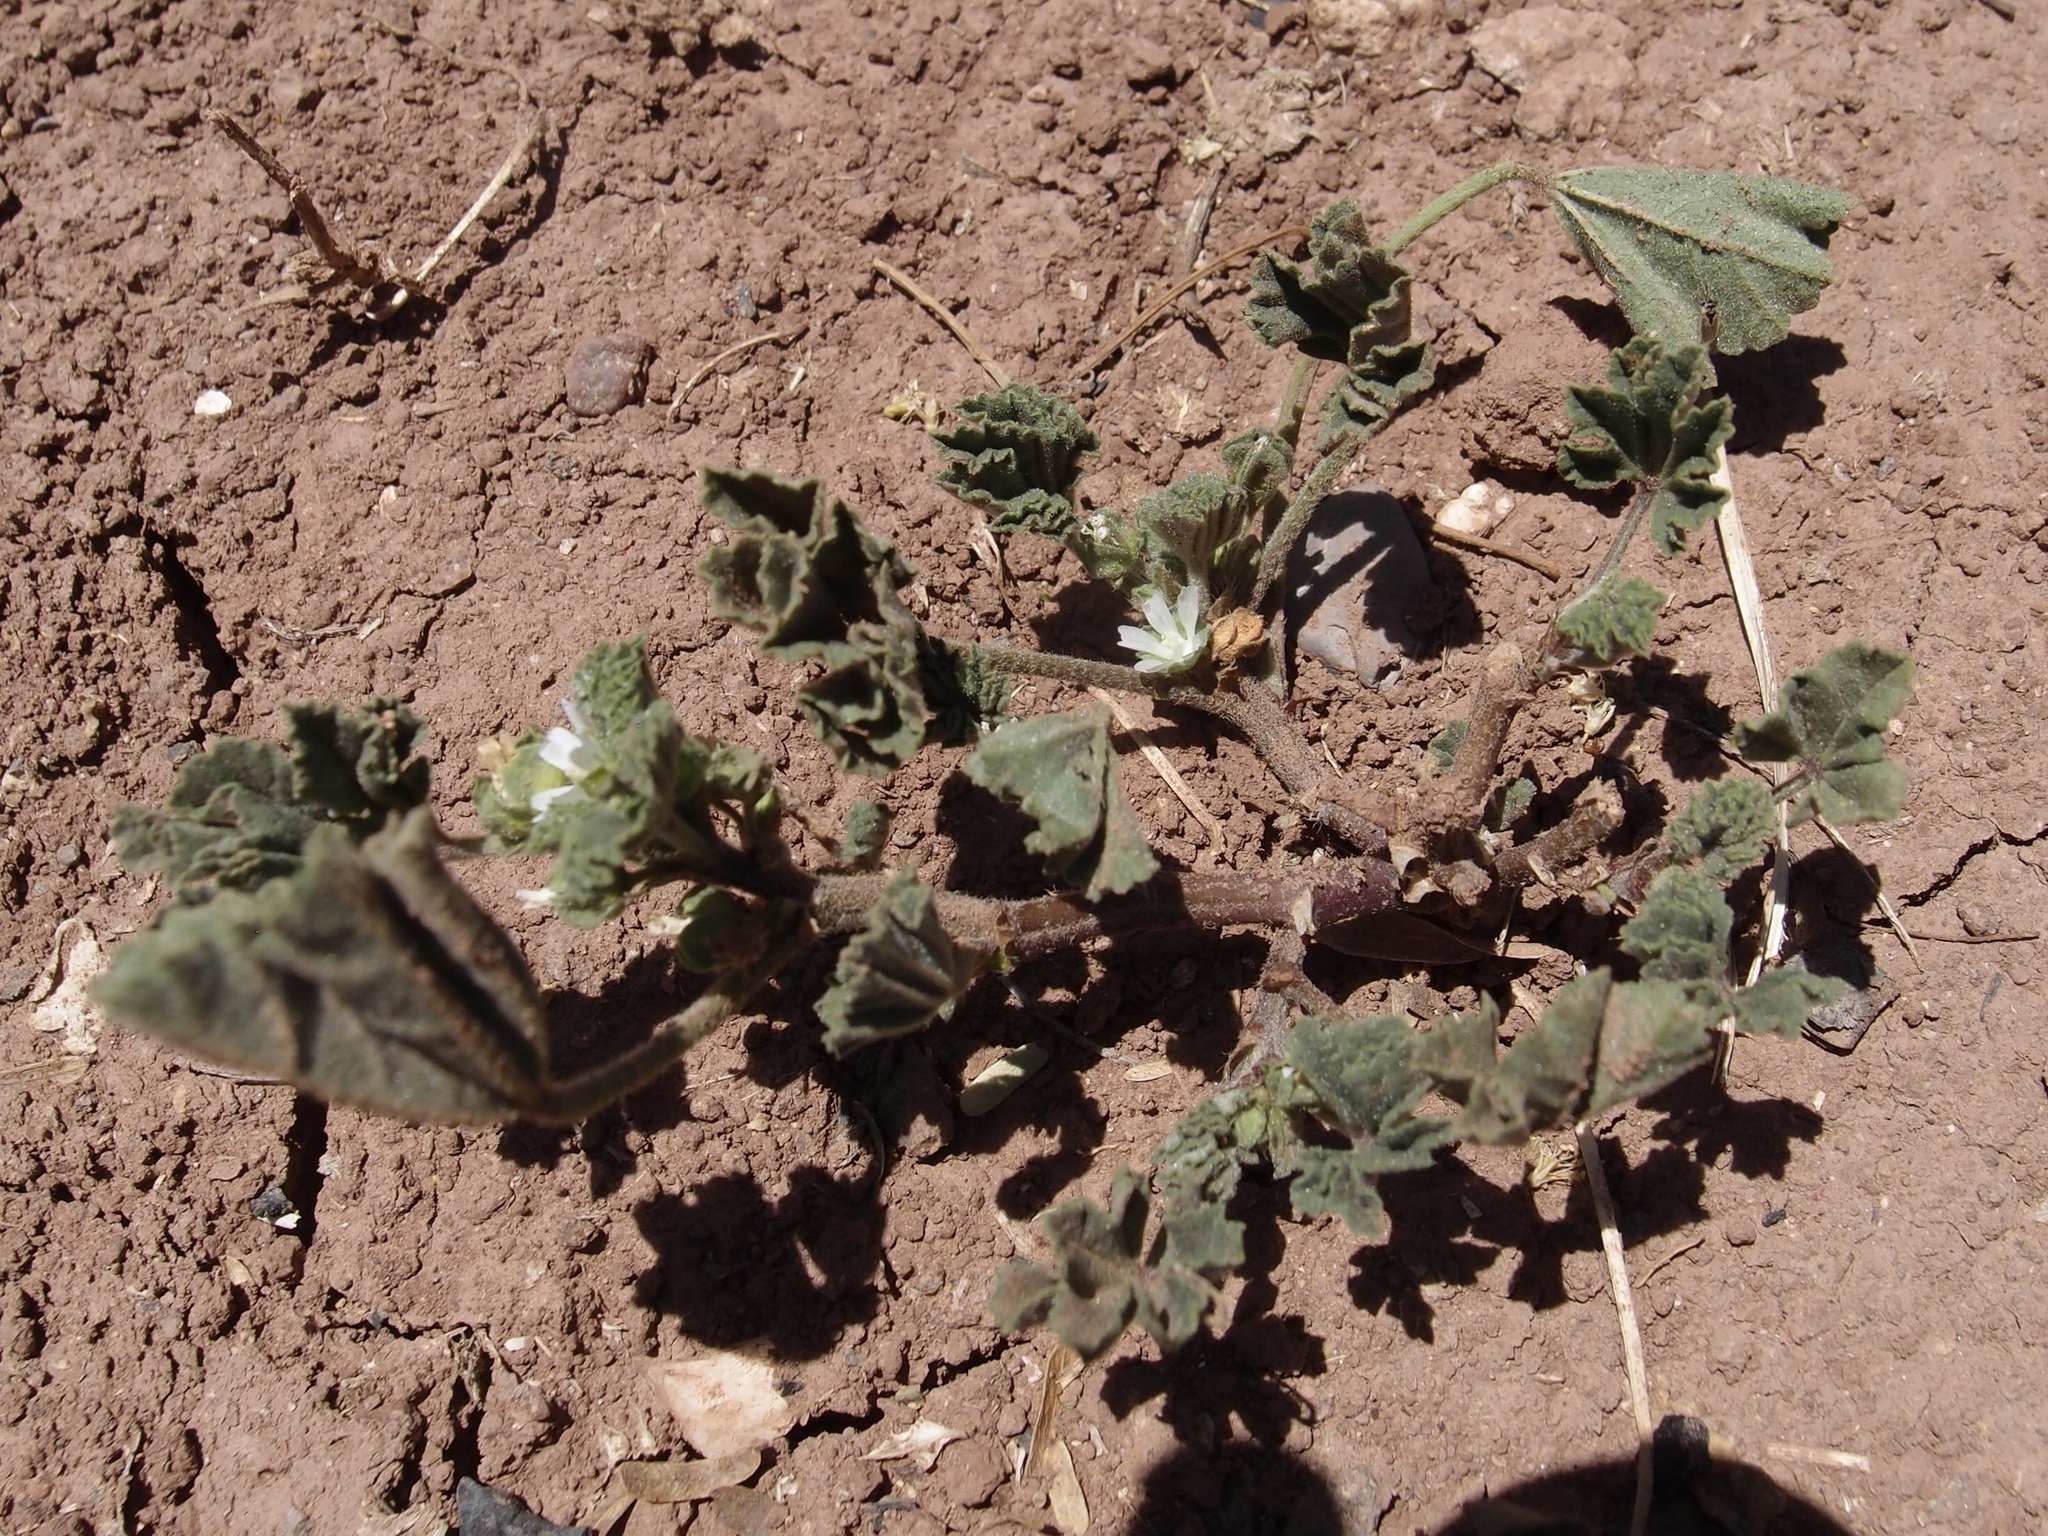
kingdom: Plantae
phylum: Tracheophyta
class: Magnoliopsida
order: Malvales
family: Malvaceae
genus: Malva
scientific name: Malva parviflora
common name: Least mallow
